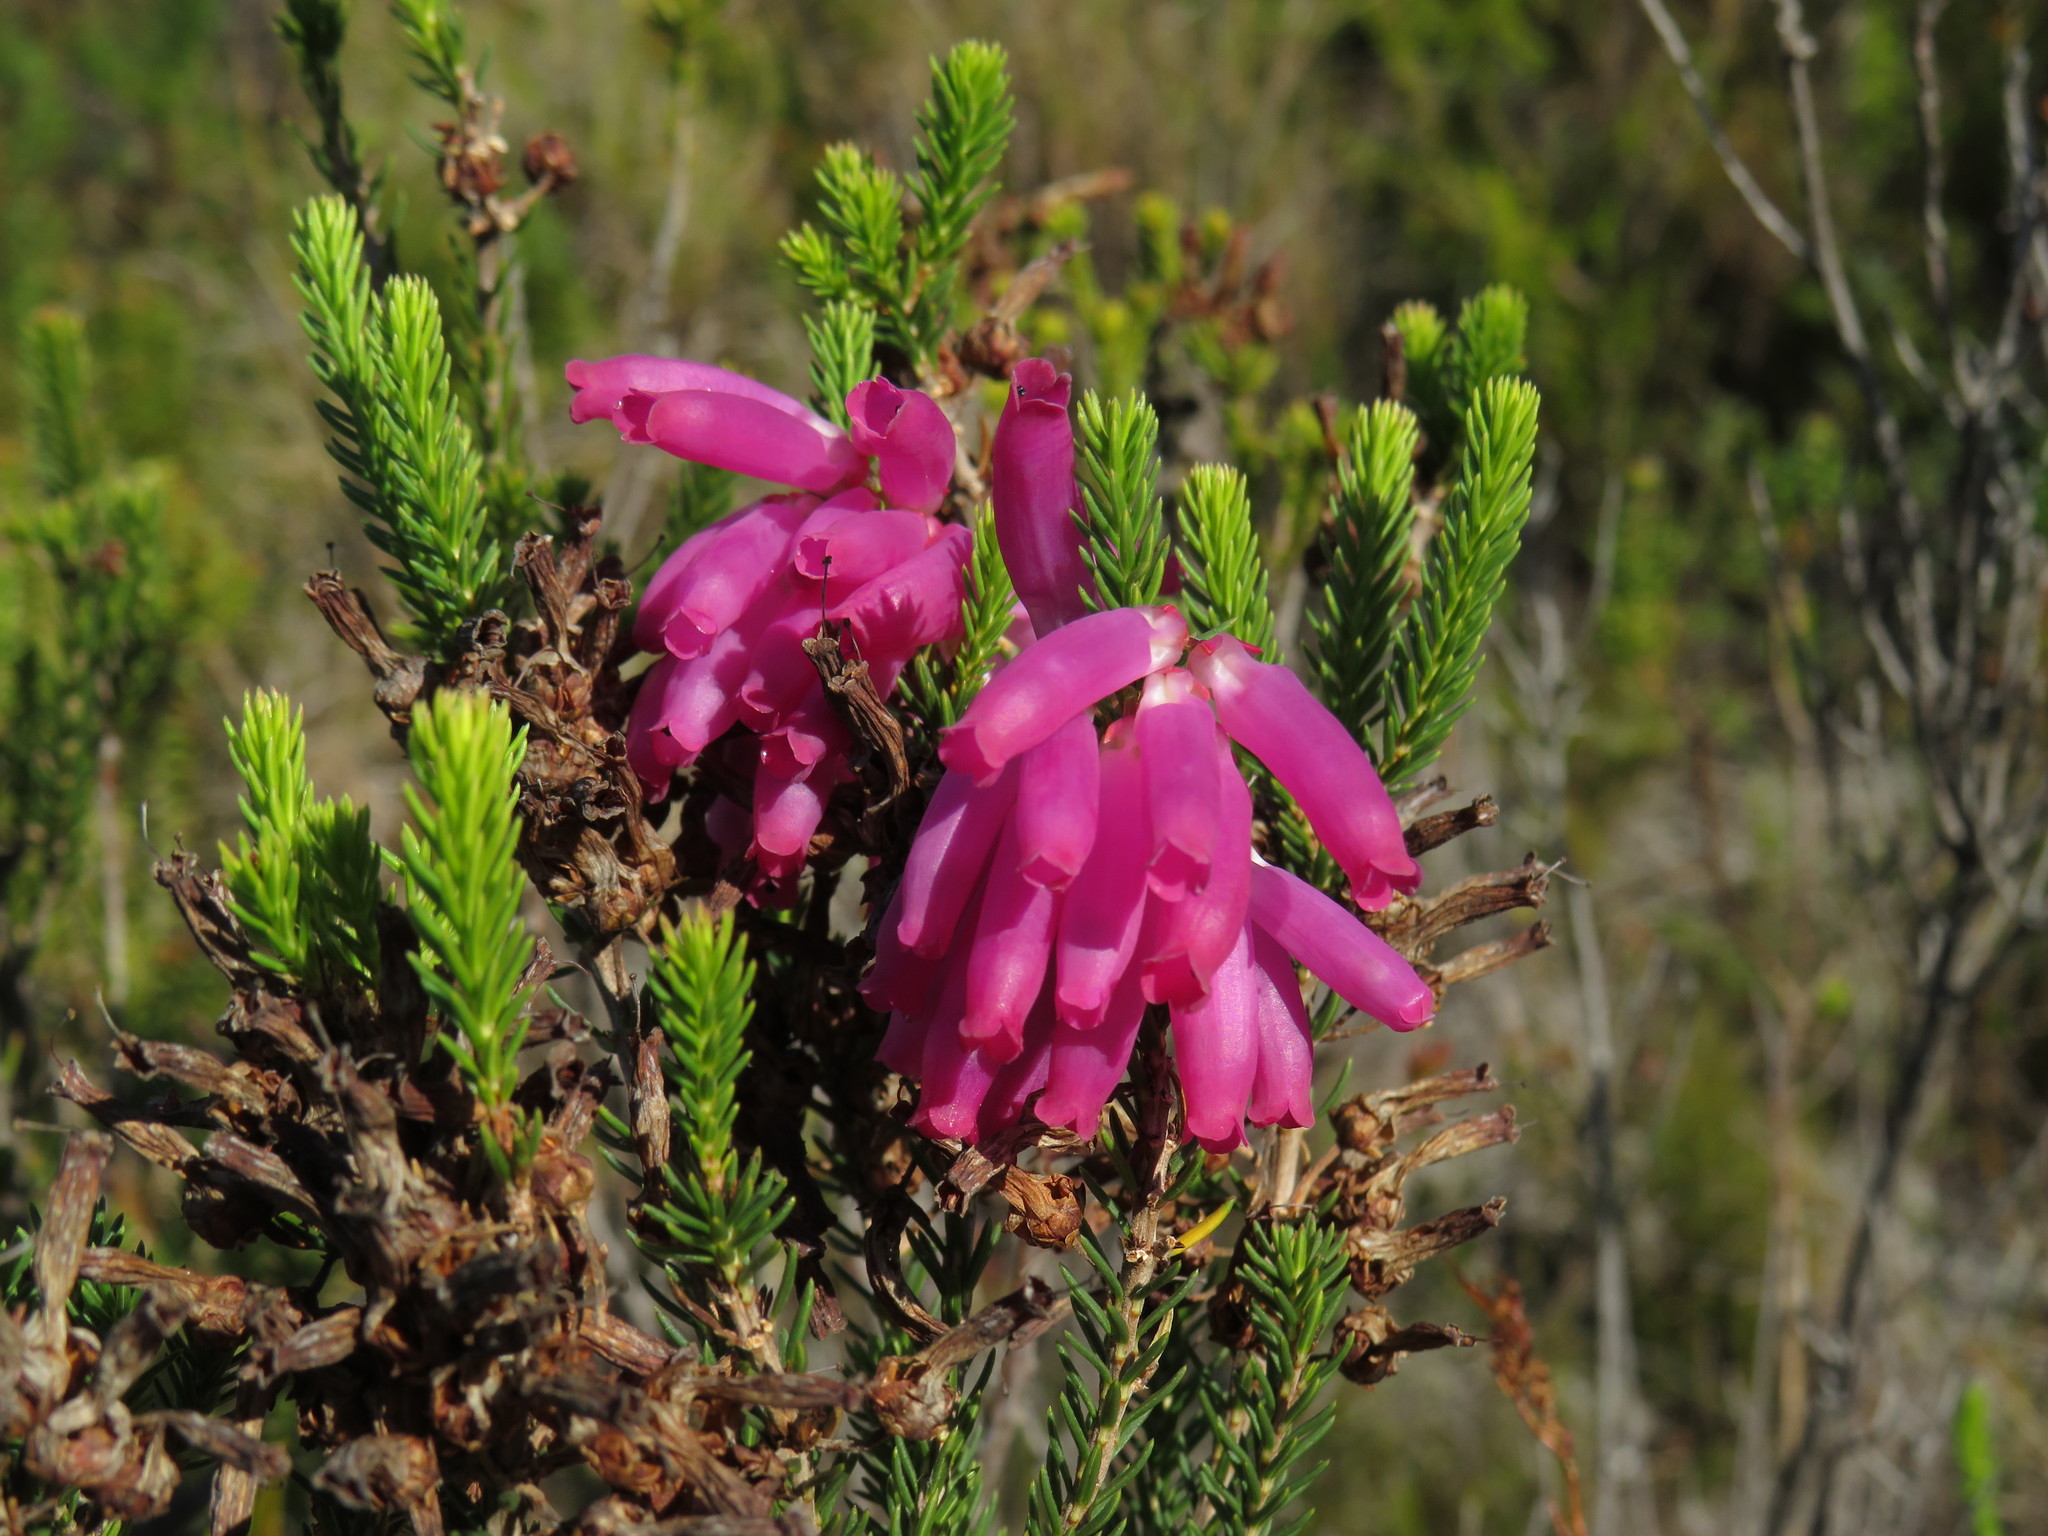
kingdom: Plantae
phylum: Tracheophyta
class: Magnoliopsida
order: Ericales
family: Ericaceae
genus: Erica
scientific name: Erica mammosa
